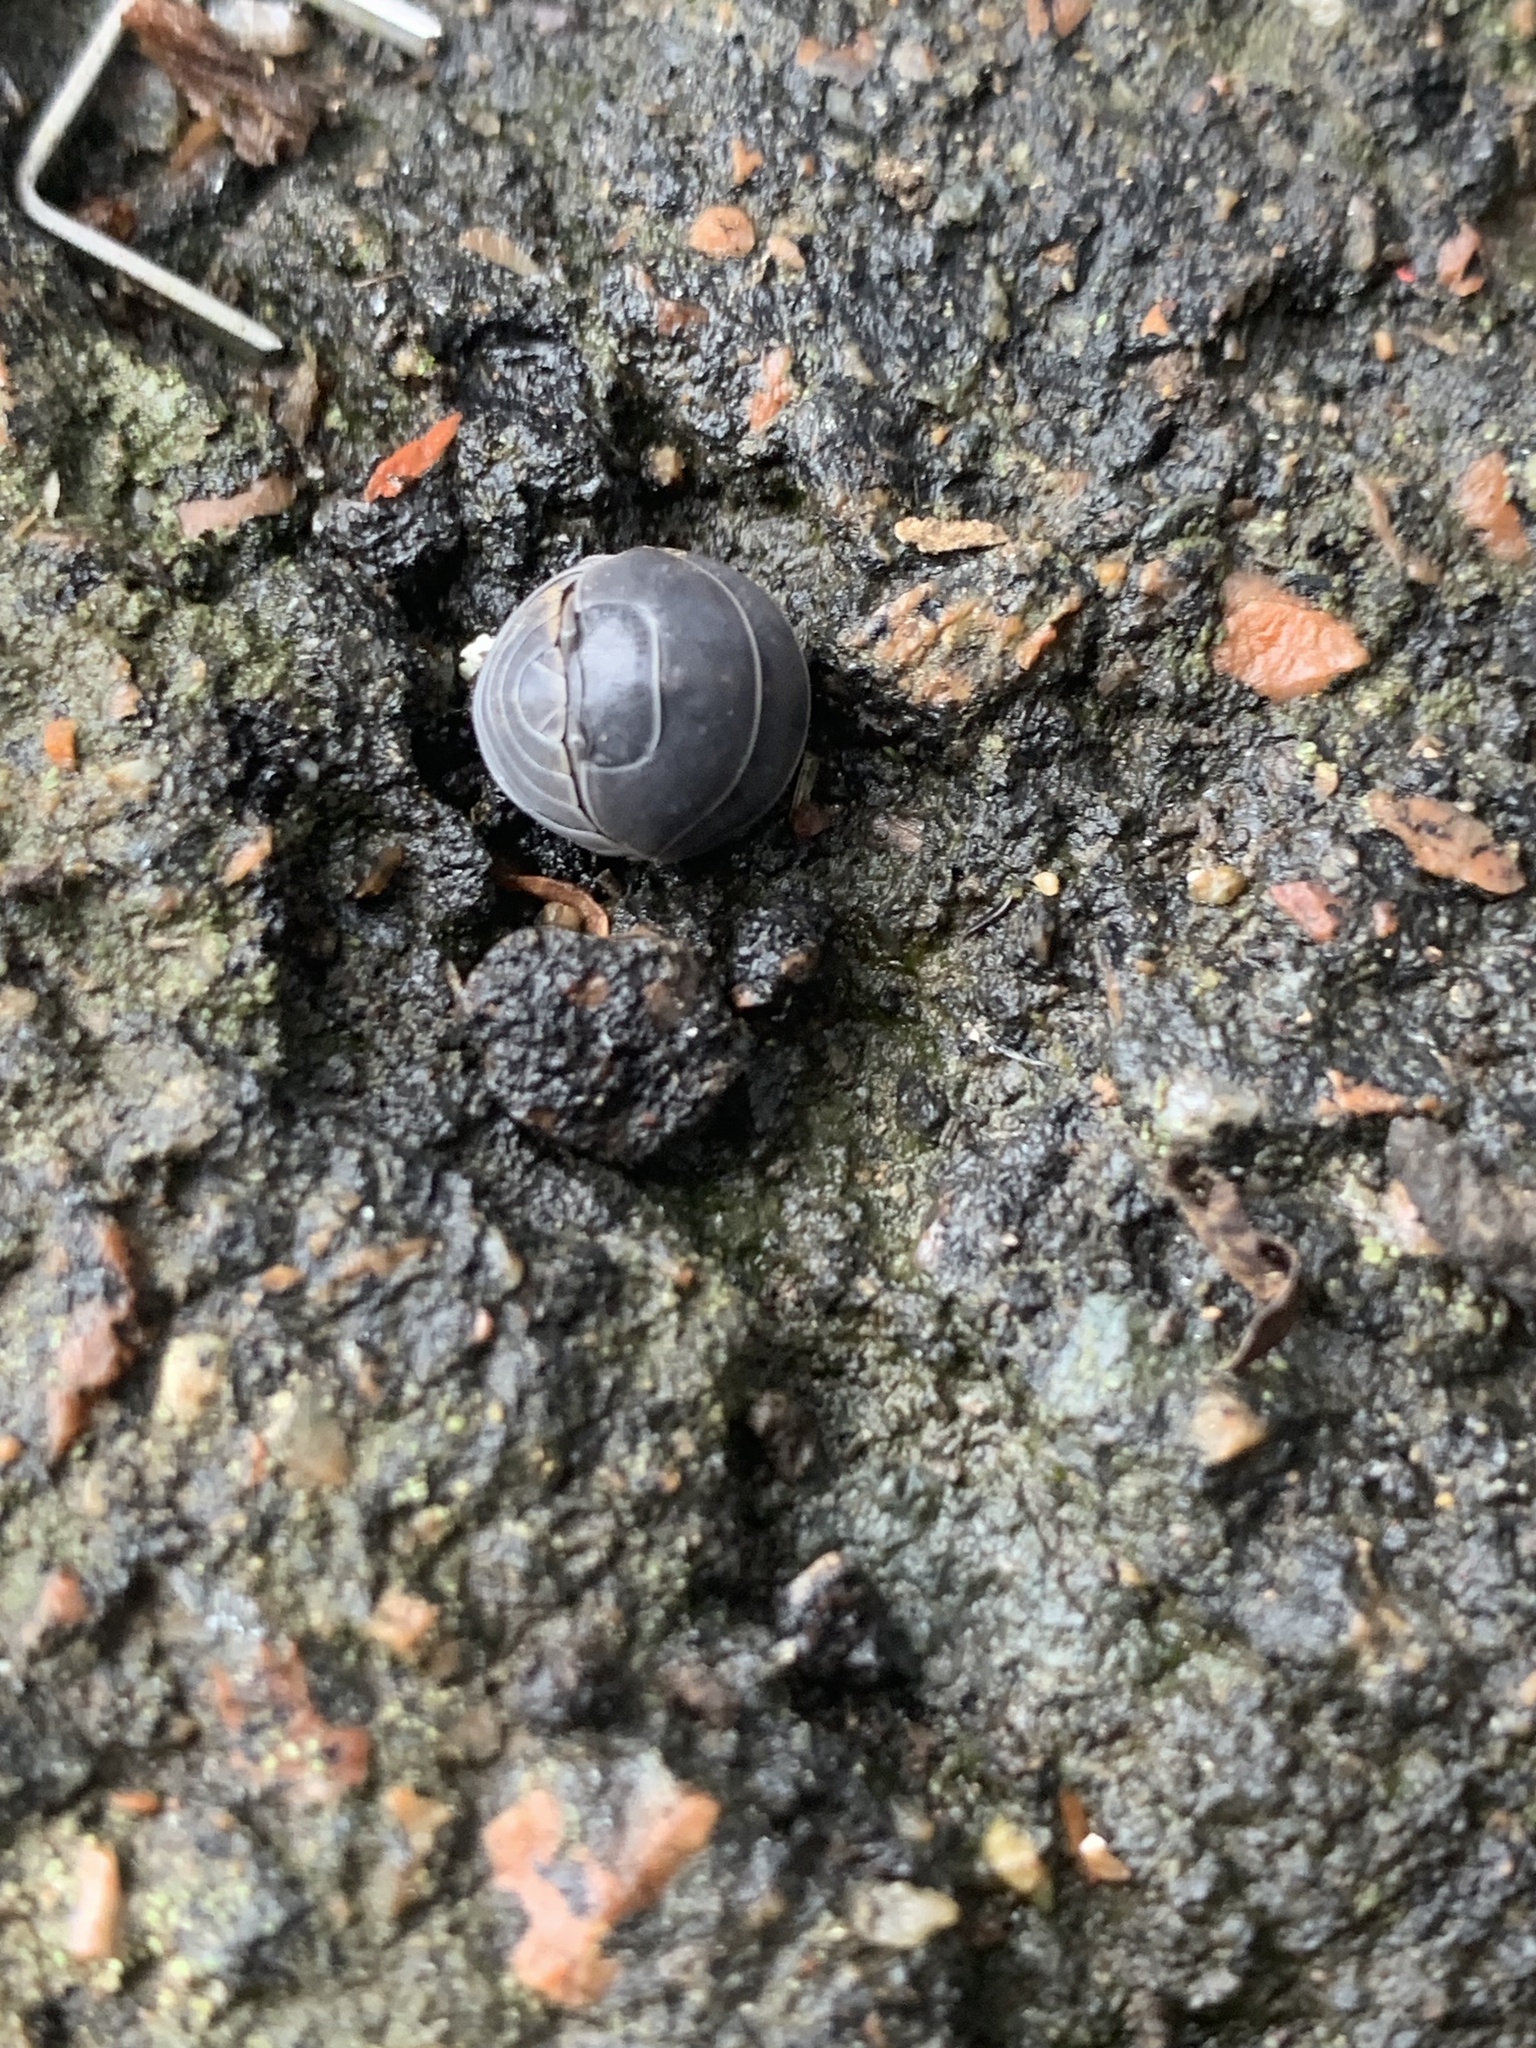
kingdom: Animalia
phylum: Arthropoda
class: Malacostraca
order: Isopoda
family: Armadillidiidae
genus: Armadillidium
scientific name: Armadillidium vulgare
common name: Common pill woodlouse
